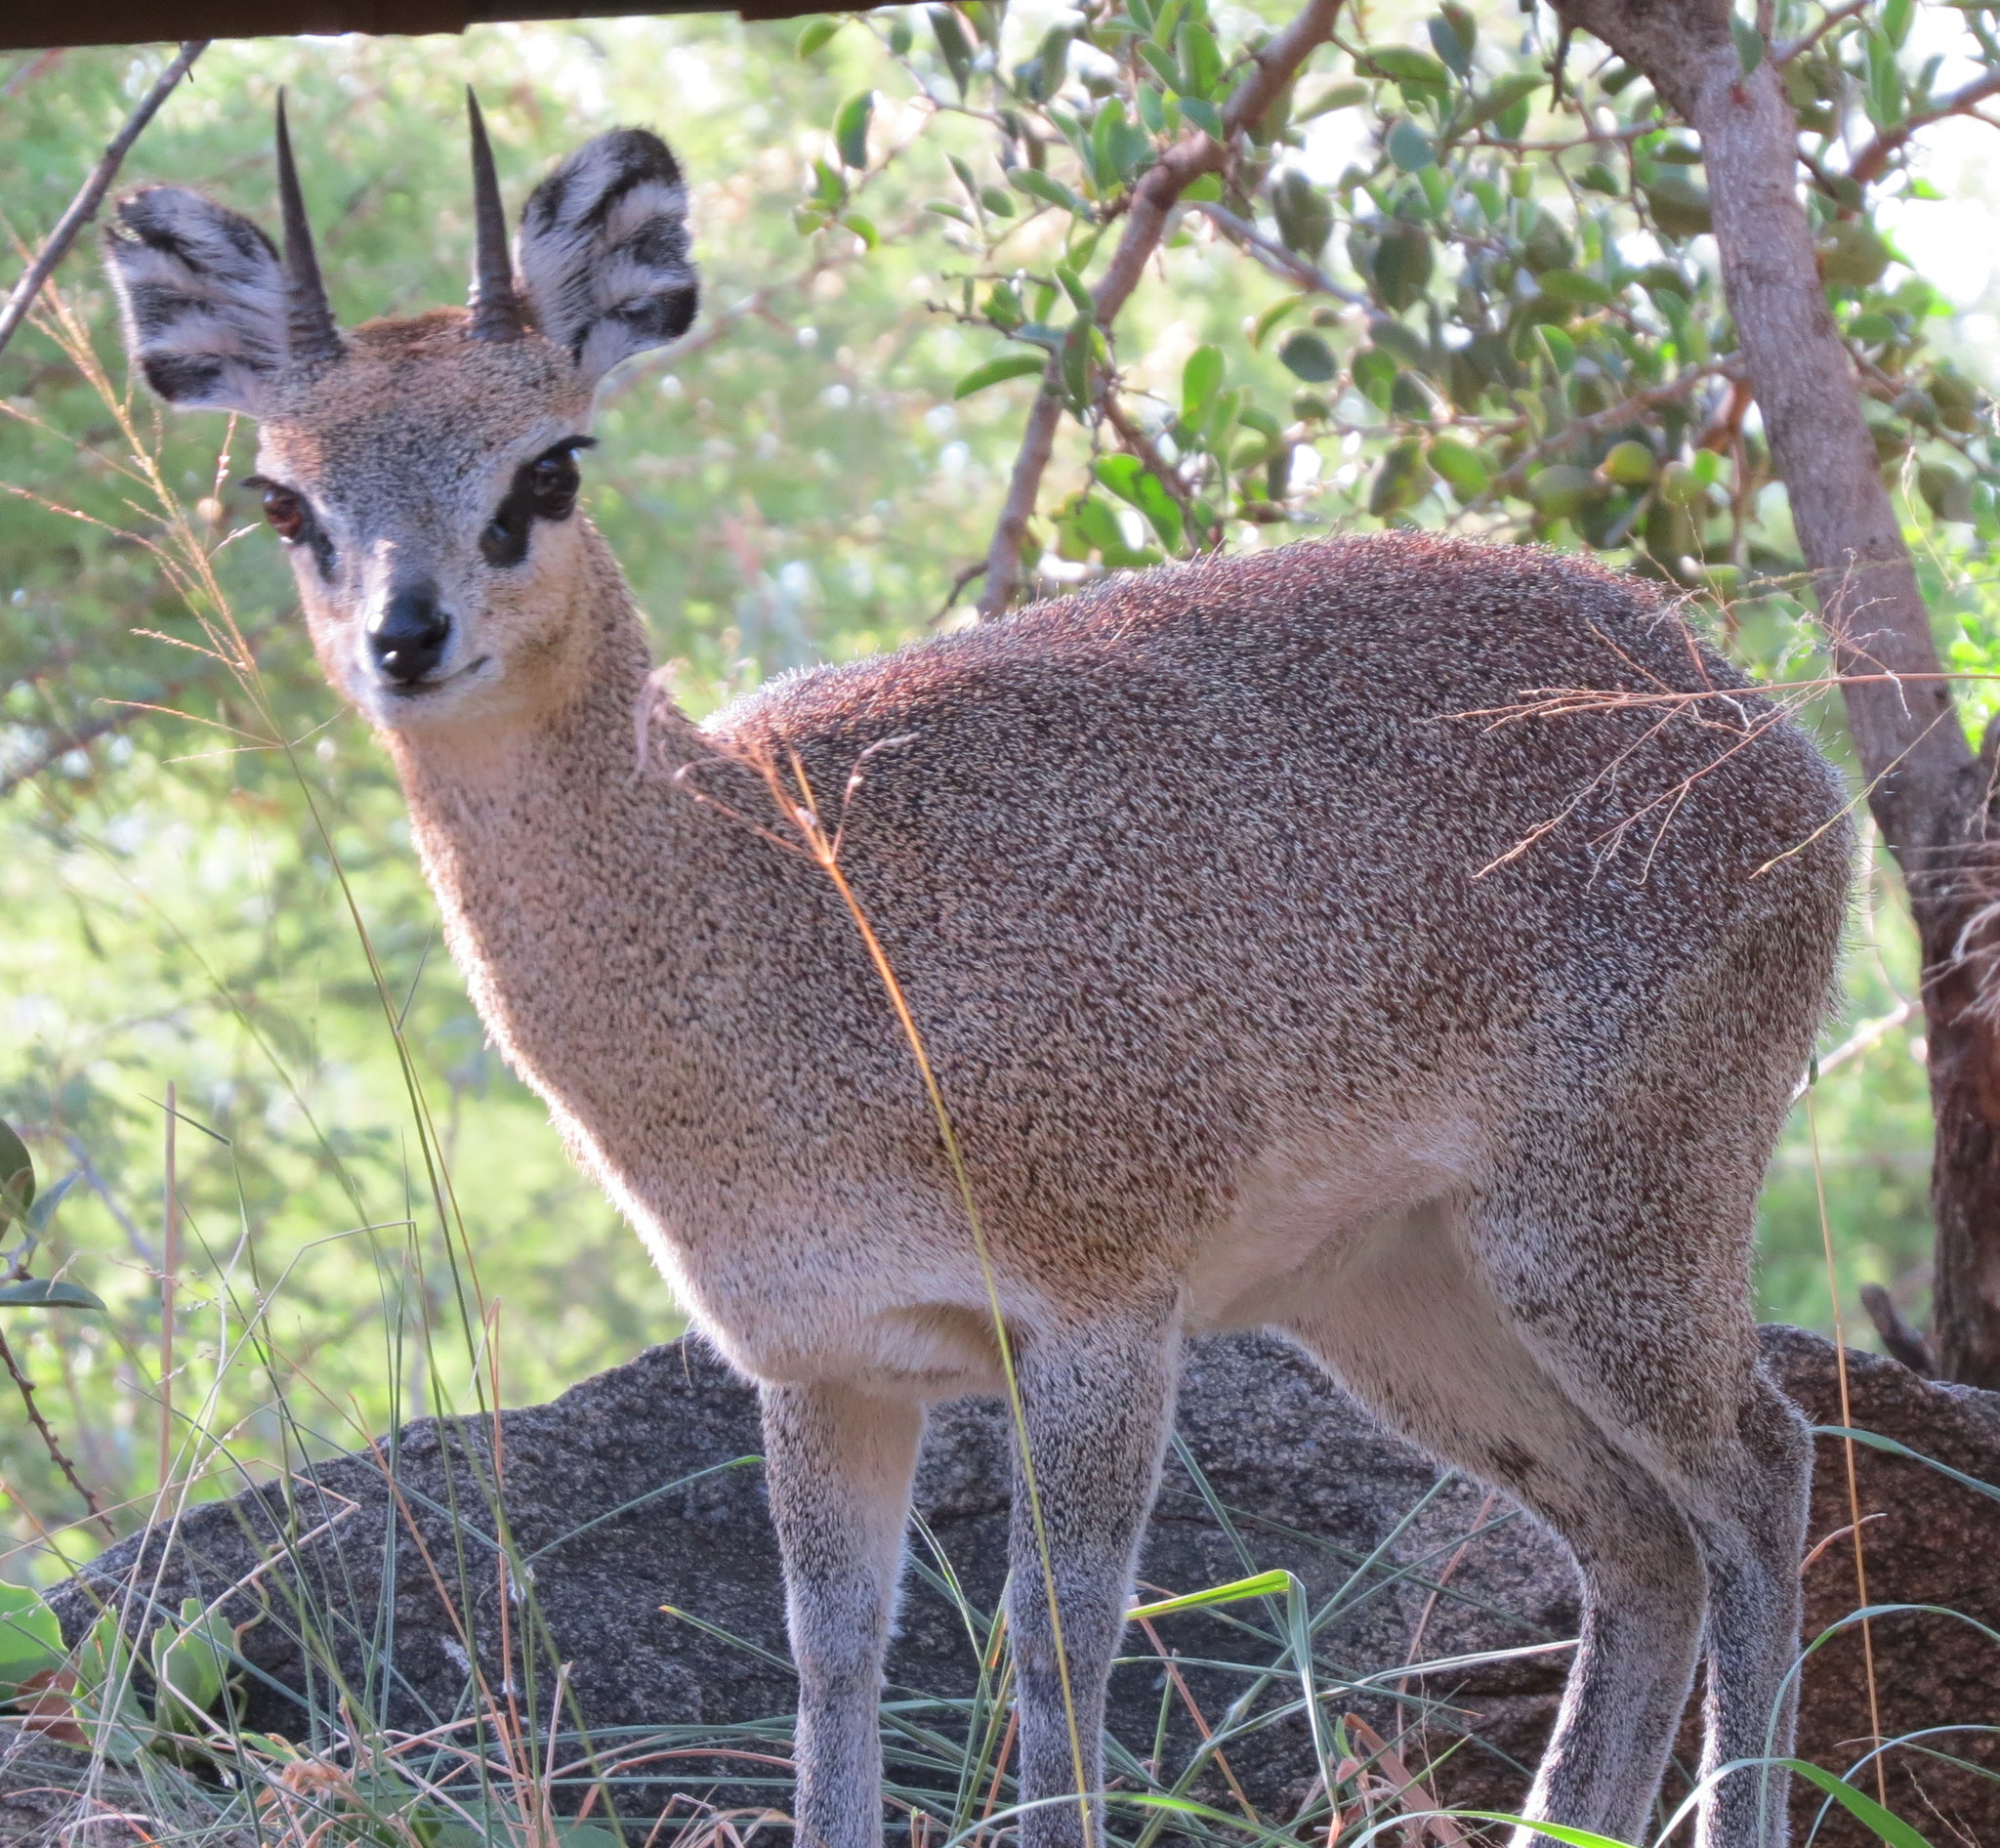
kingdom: Animalia
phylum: Chordata
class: Mammalia
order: Artiodactyla
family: Bovidae
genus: Oreotragus
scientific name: Oreotragus oreotragus
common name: Klipspringer
